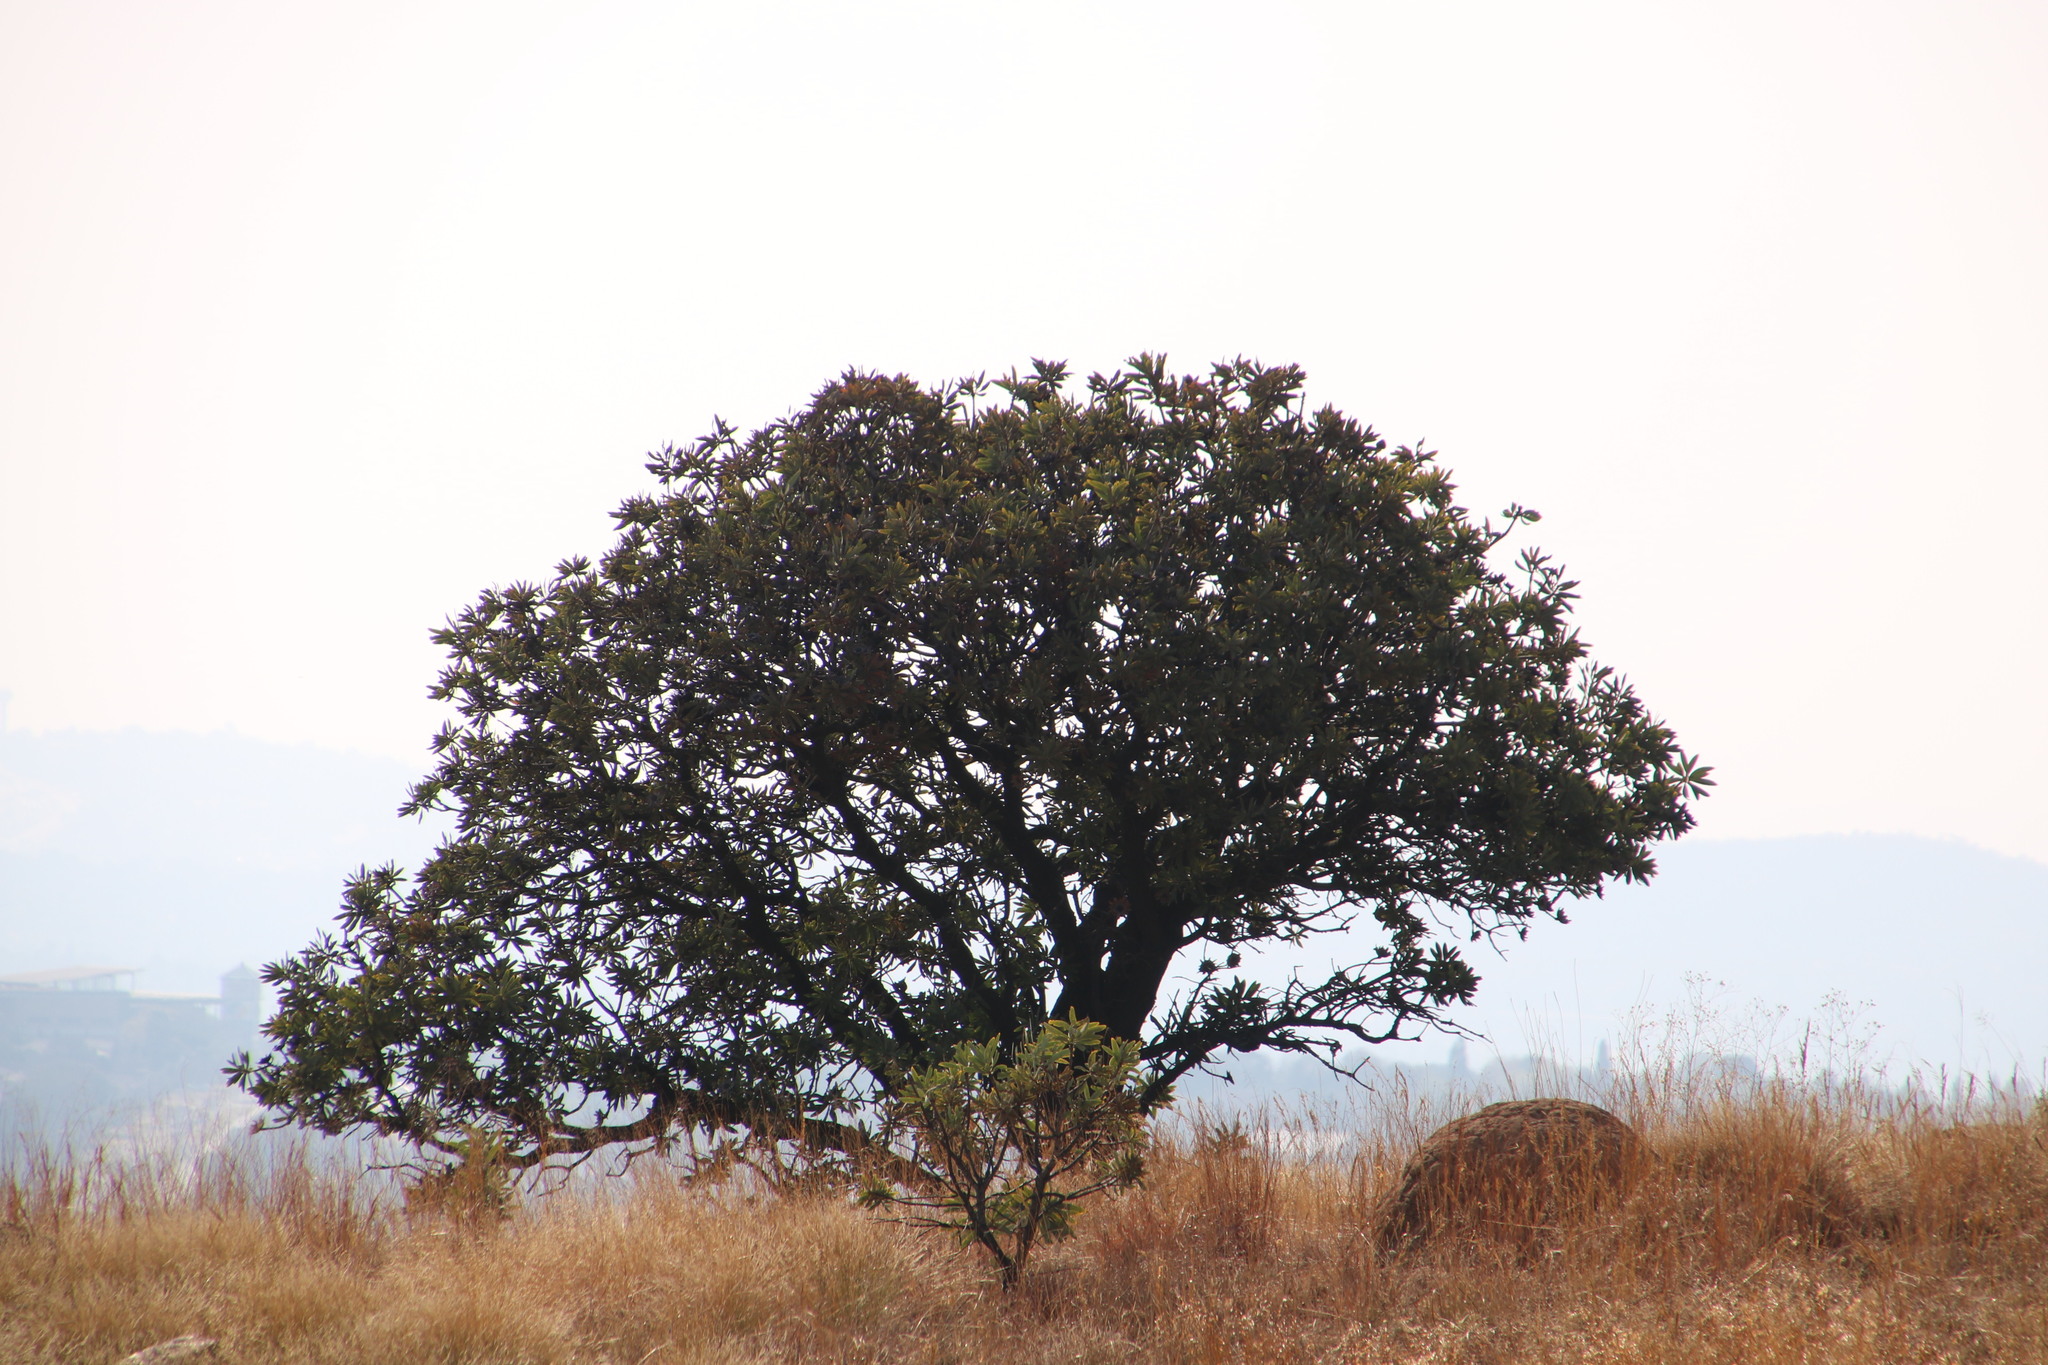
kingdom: Plantae
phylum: Tracheophyta
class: Magnoliopsida
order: Proteales
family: Proteaceae
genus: Protea
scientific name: Protea caffra
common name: Common sugarbush
